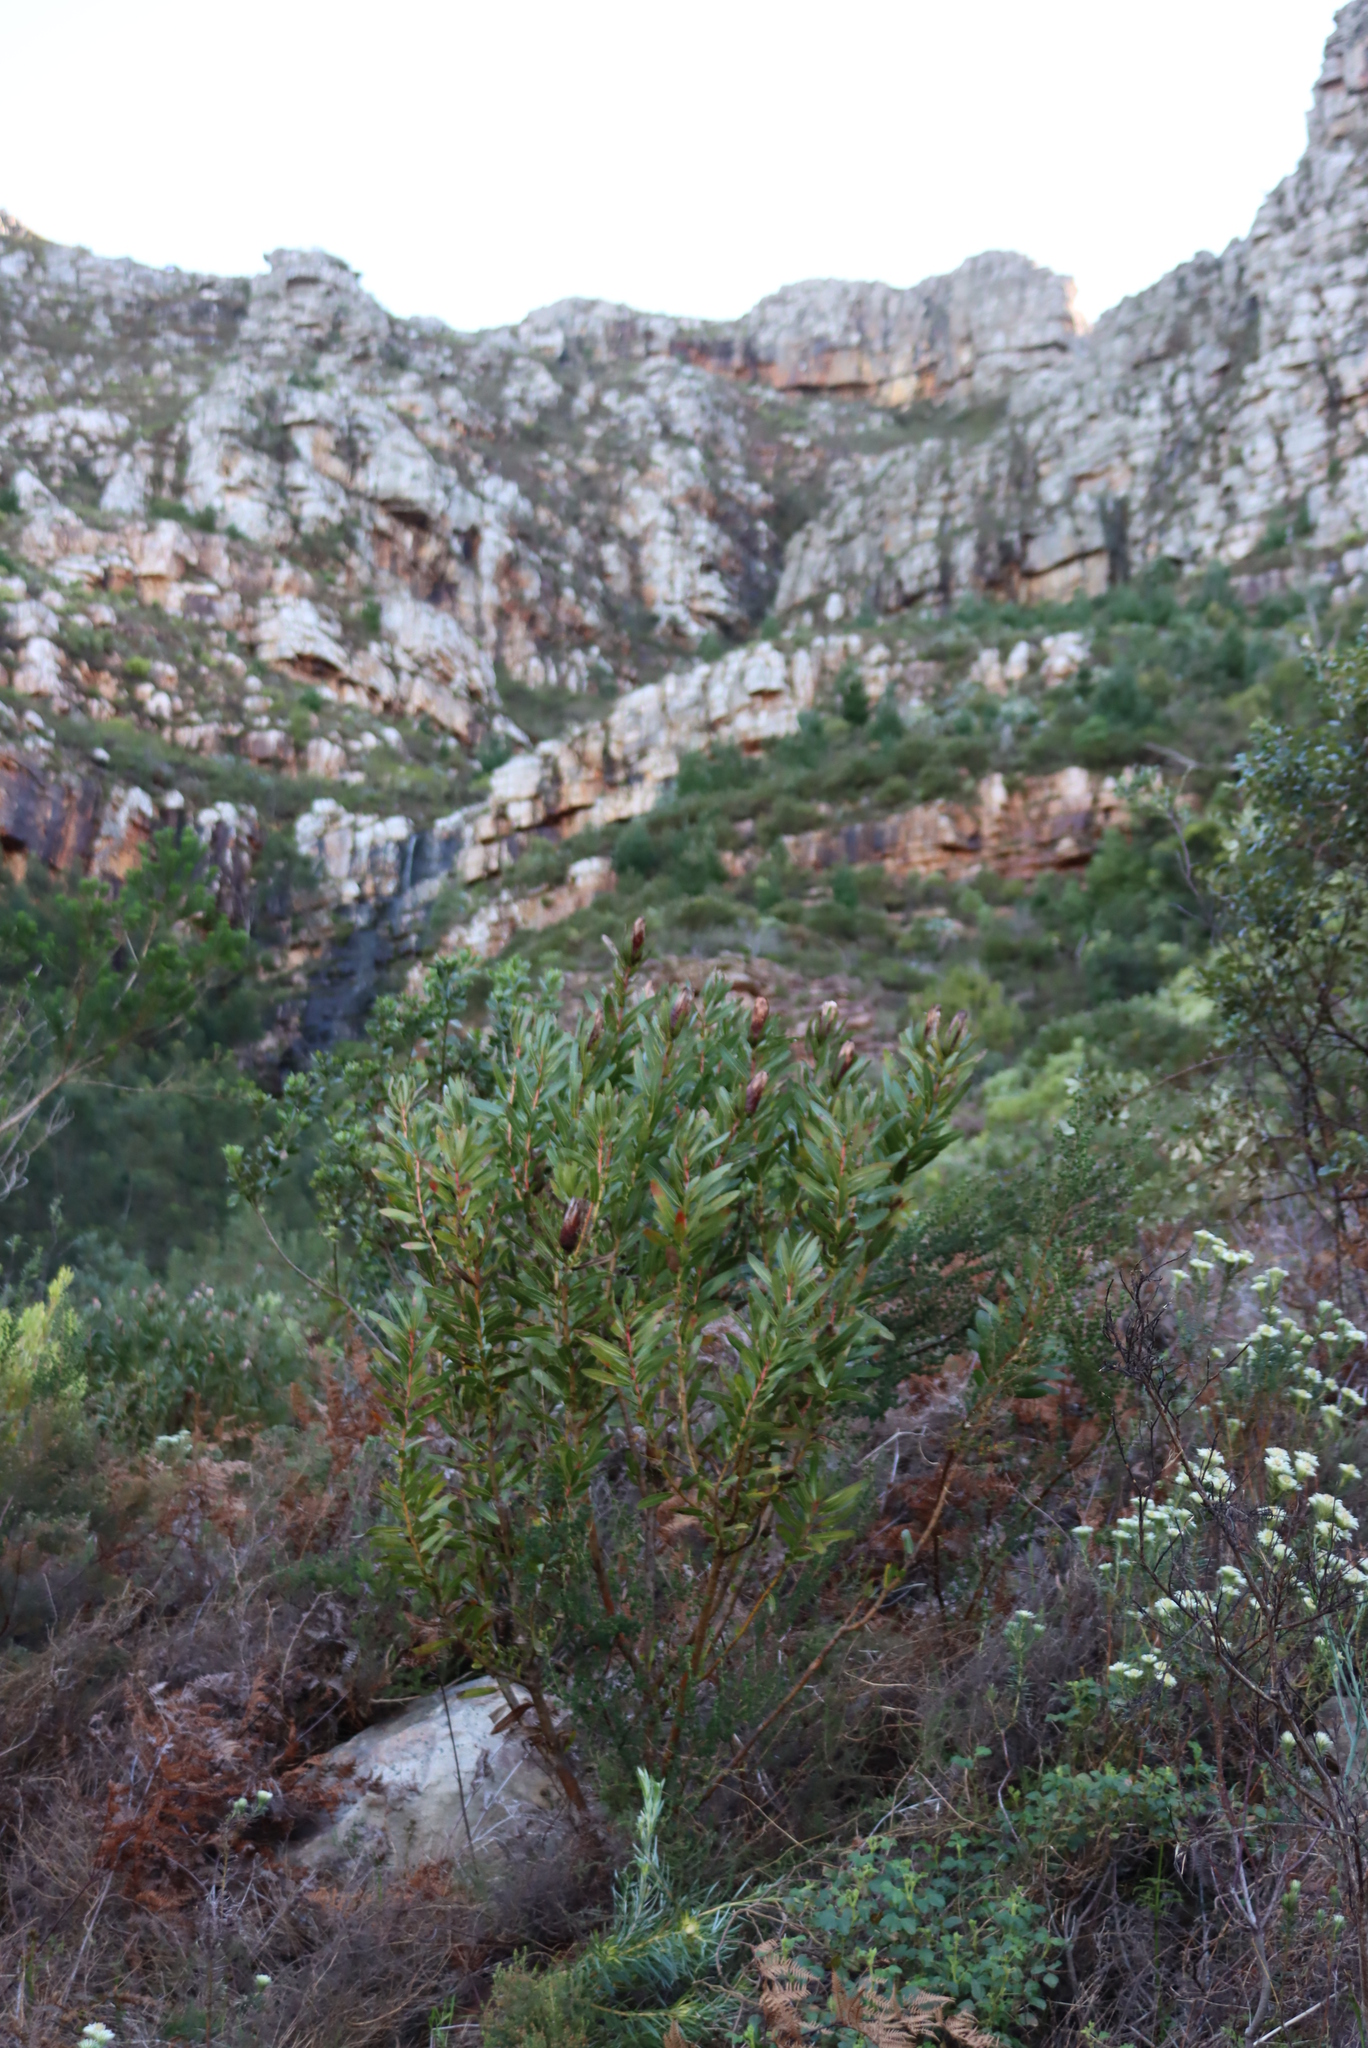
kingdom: Plantae
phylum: Tracheophyta
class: Magnoliopsida
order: Proteales
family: Proteaceae
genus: Protea
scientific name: Protea lepidocarpodendron
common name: Black-bearded protea
